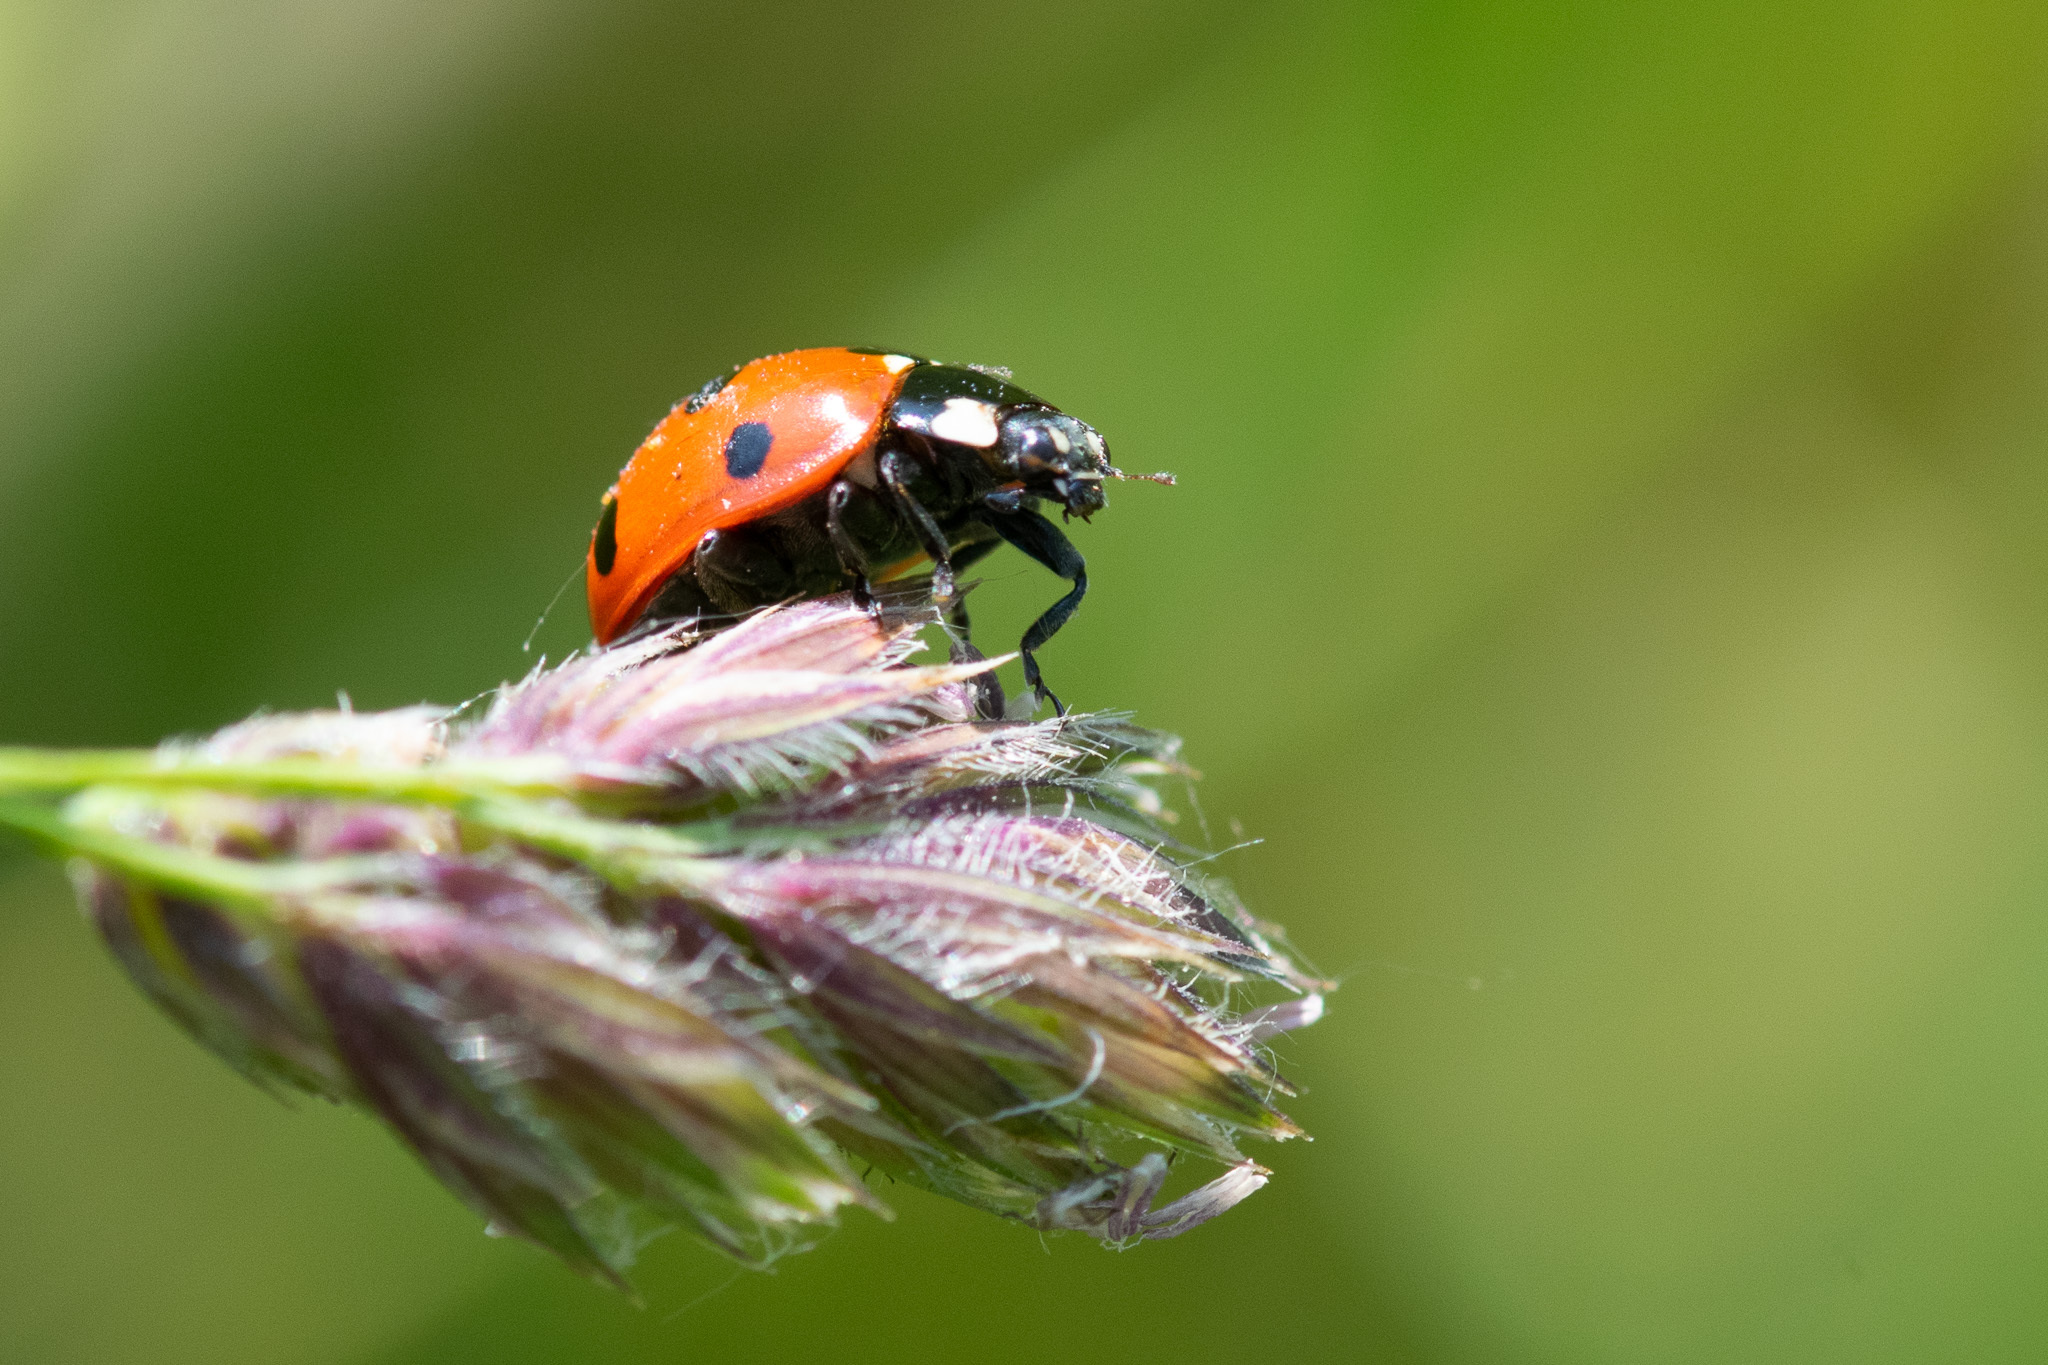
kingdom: Animalia
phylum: Arthropoda
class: Insecta
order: Coleoptera
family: Coccinellidae
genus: Coccinella
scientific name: Coccinella septempunctata
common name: Sevenspotted lady beetle
